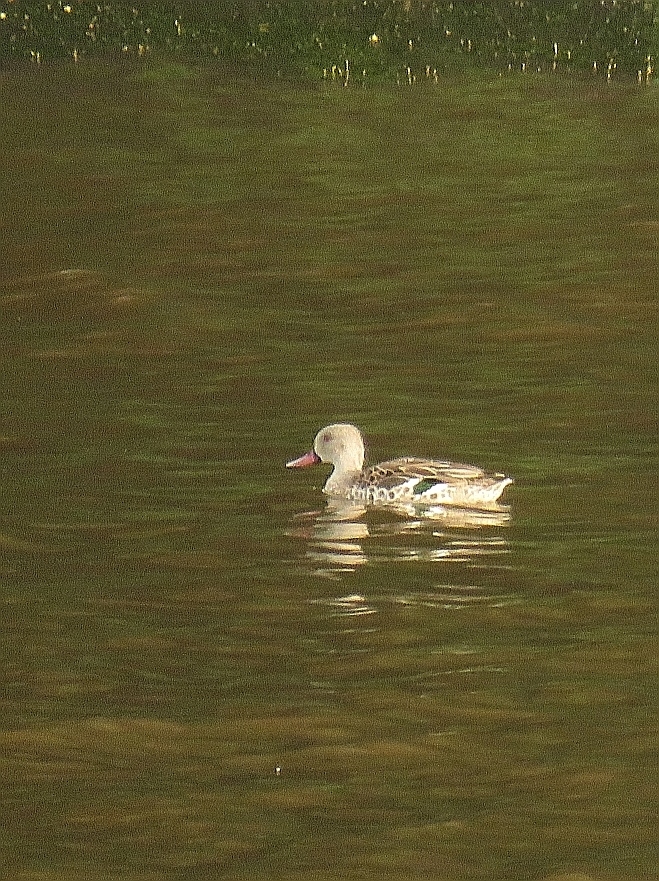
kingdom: Animalia
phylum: Chordata
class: Aves
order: Anseriformes
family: Anatidae
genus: Anas
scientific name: Anas capensis
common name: Cape teal
